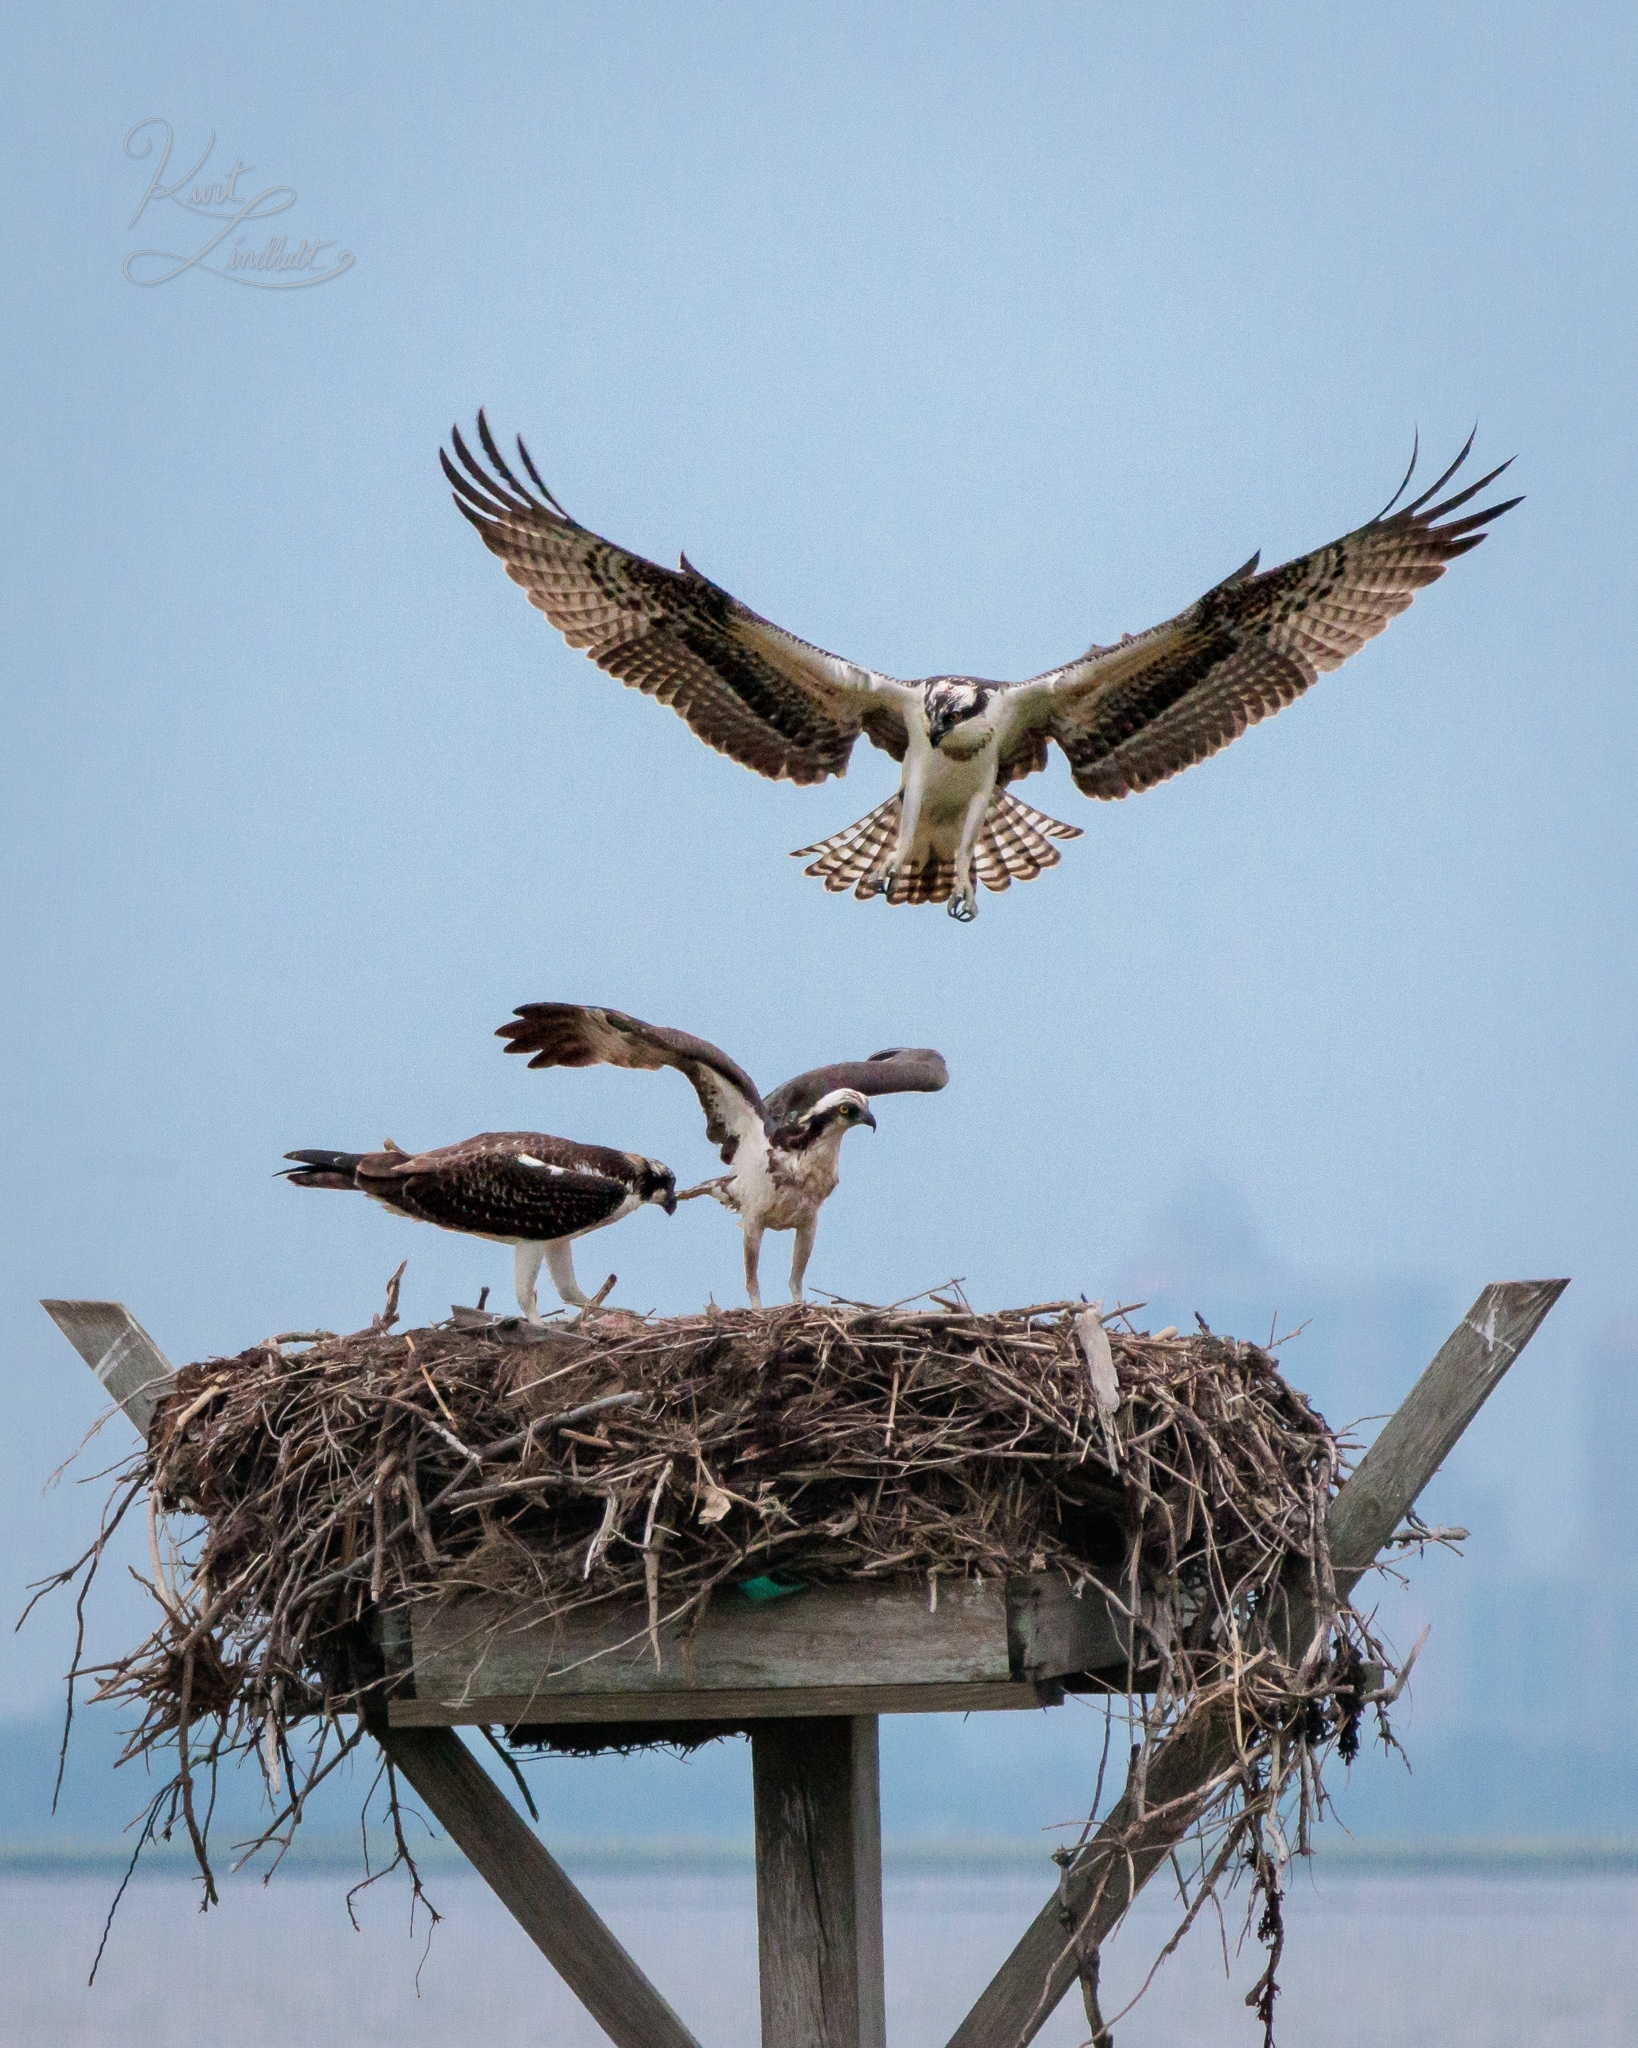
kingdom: Animalia
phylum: Chordata
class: Aves
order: Accipitriformes
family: Pandionidae
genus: Pandion
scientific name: Pandion haliaetus
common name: Osprey
